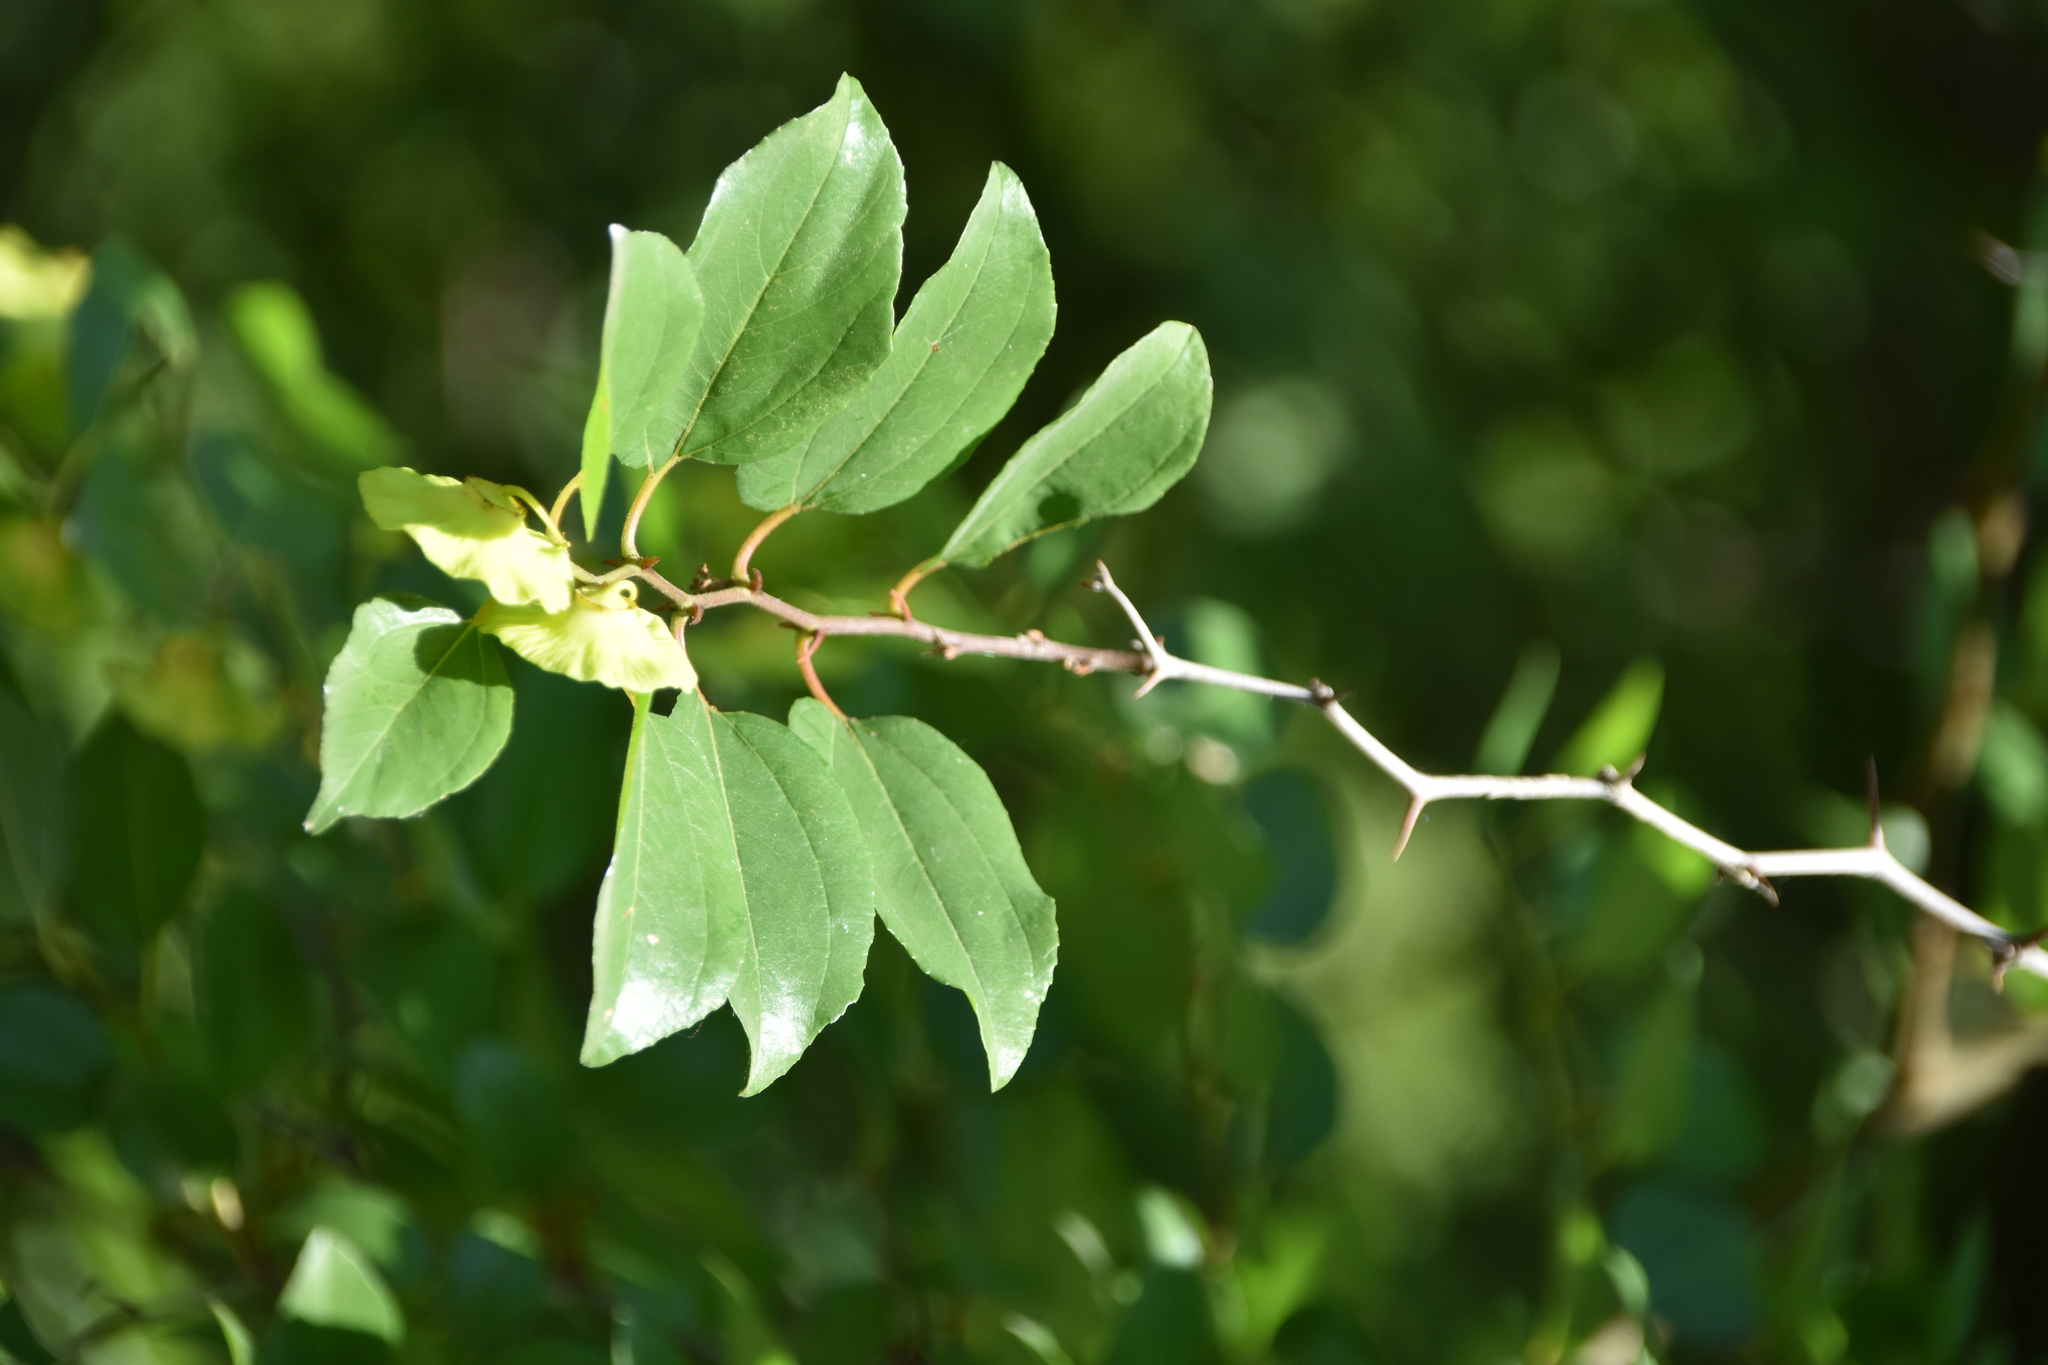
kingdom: Plantae
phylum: Tracheophyta
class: Magnoliopsida
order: Rosales
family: Rhamnaceae
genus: Paliurus
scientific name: Paliurus spina-christi
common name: Jeruselem thorn
